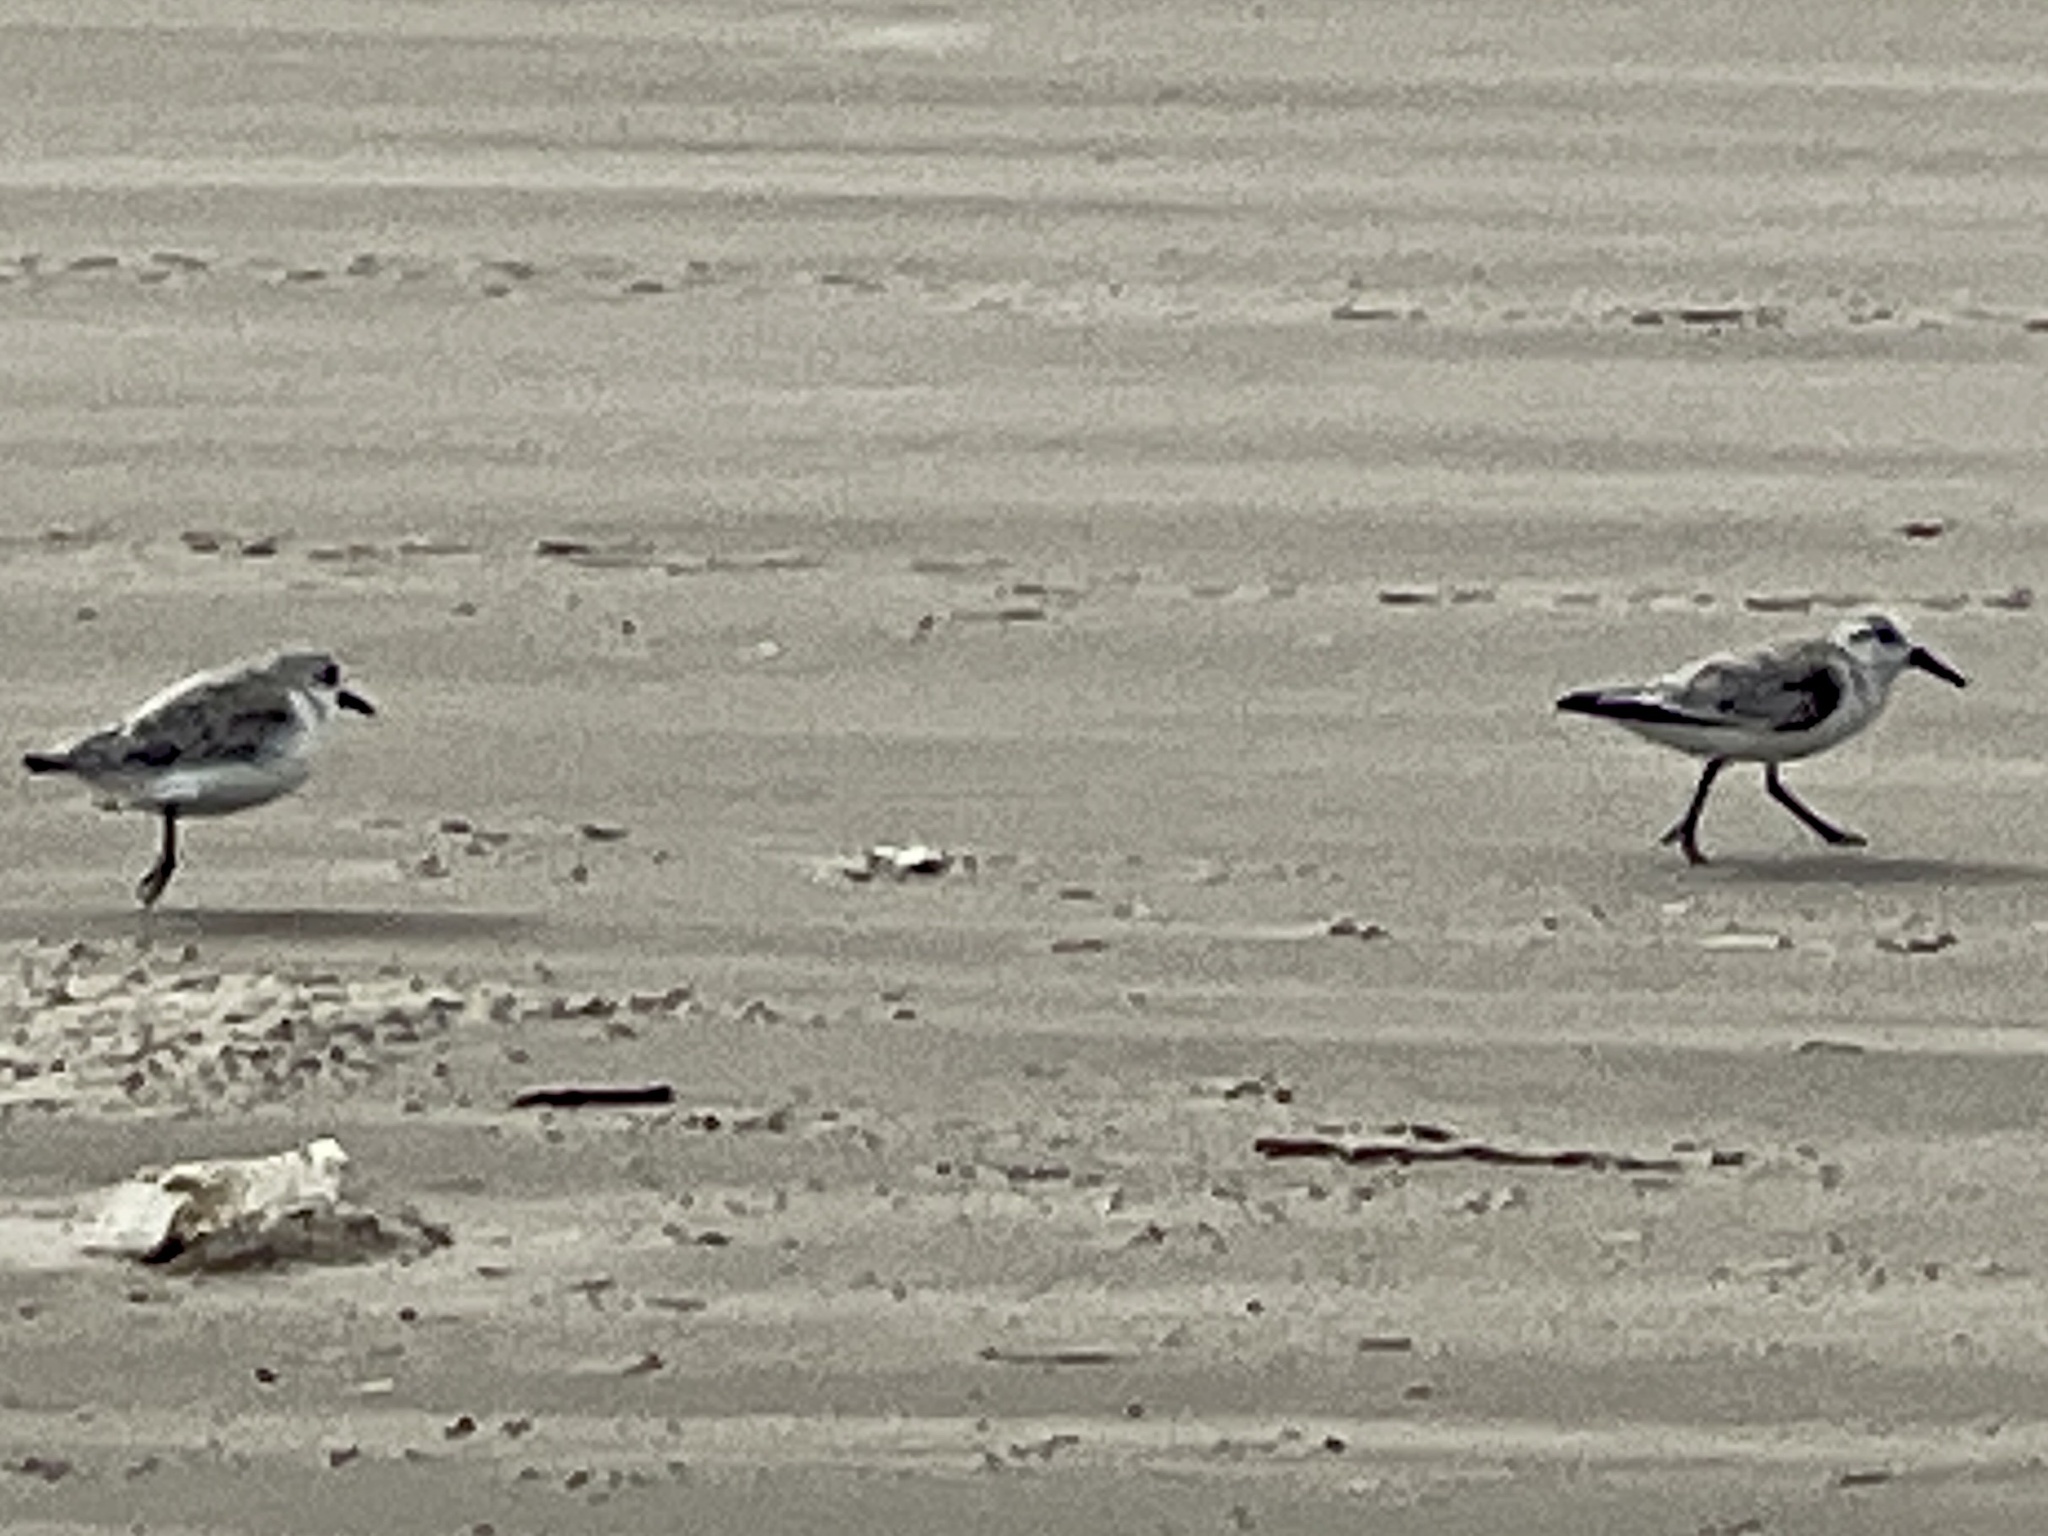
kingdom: Animalia
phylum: Chordata
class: Aves
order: Charadriiformes
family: Scolopacidae
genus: Calidris
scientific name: Calidris alba
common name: Sanderling
